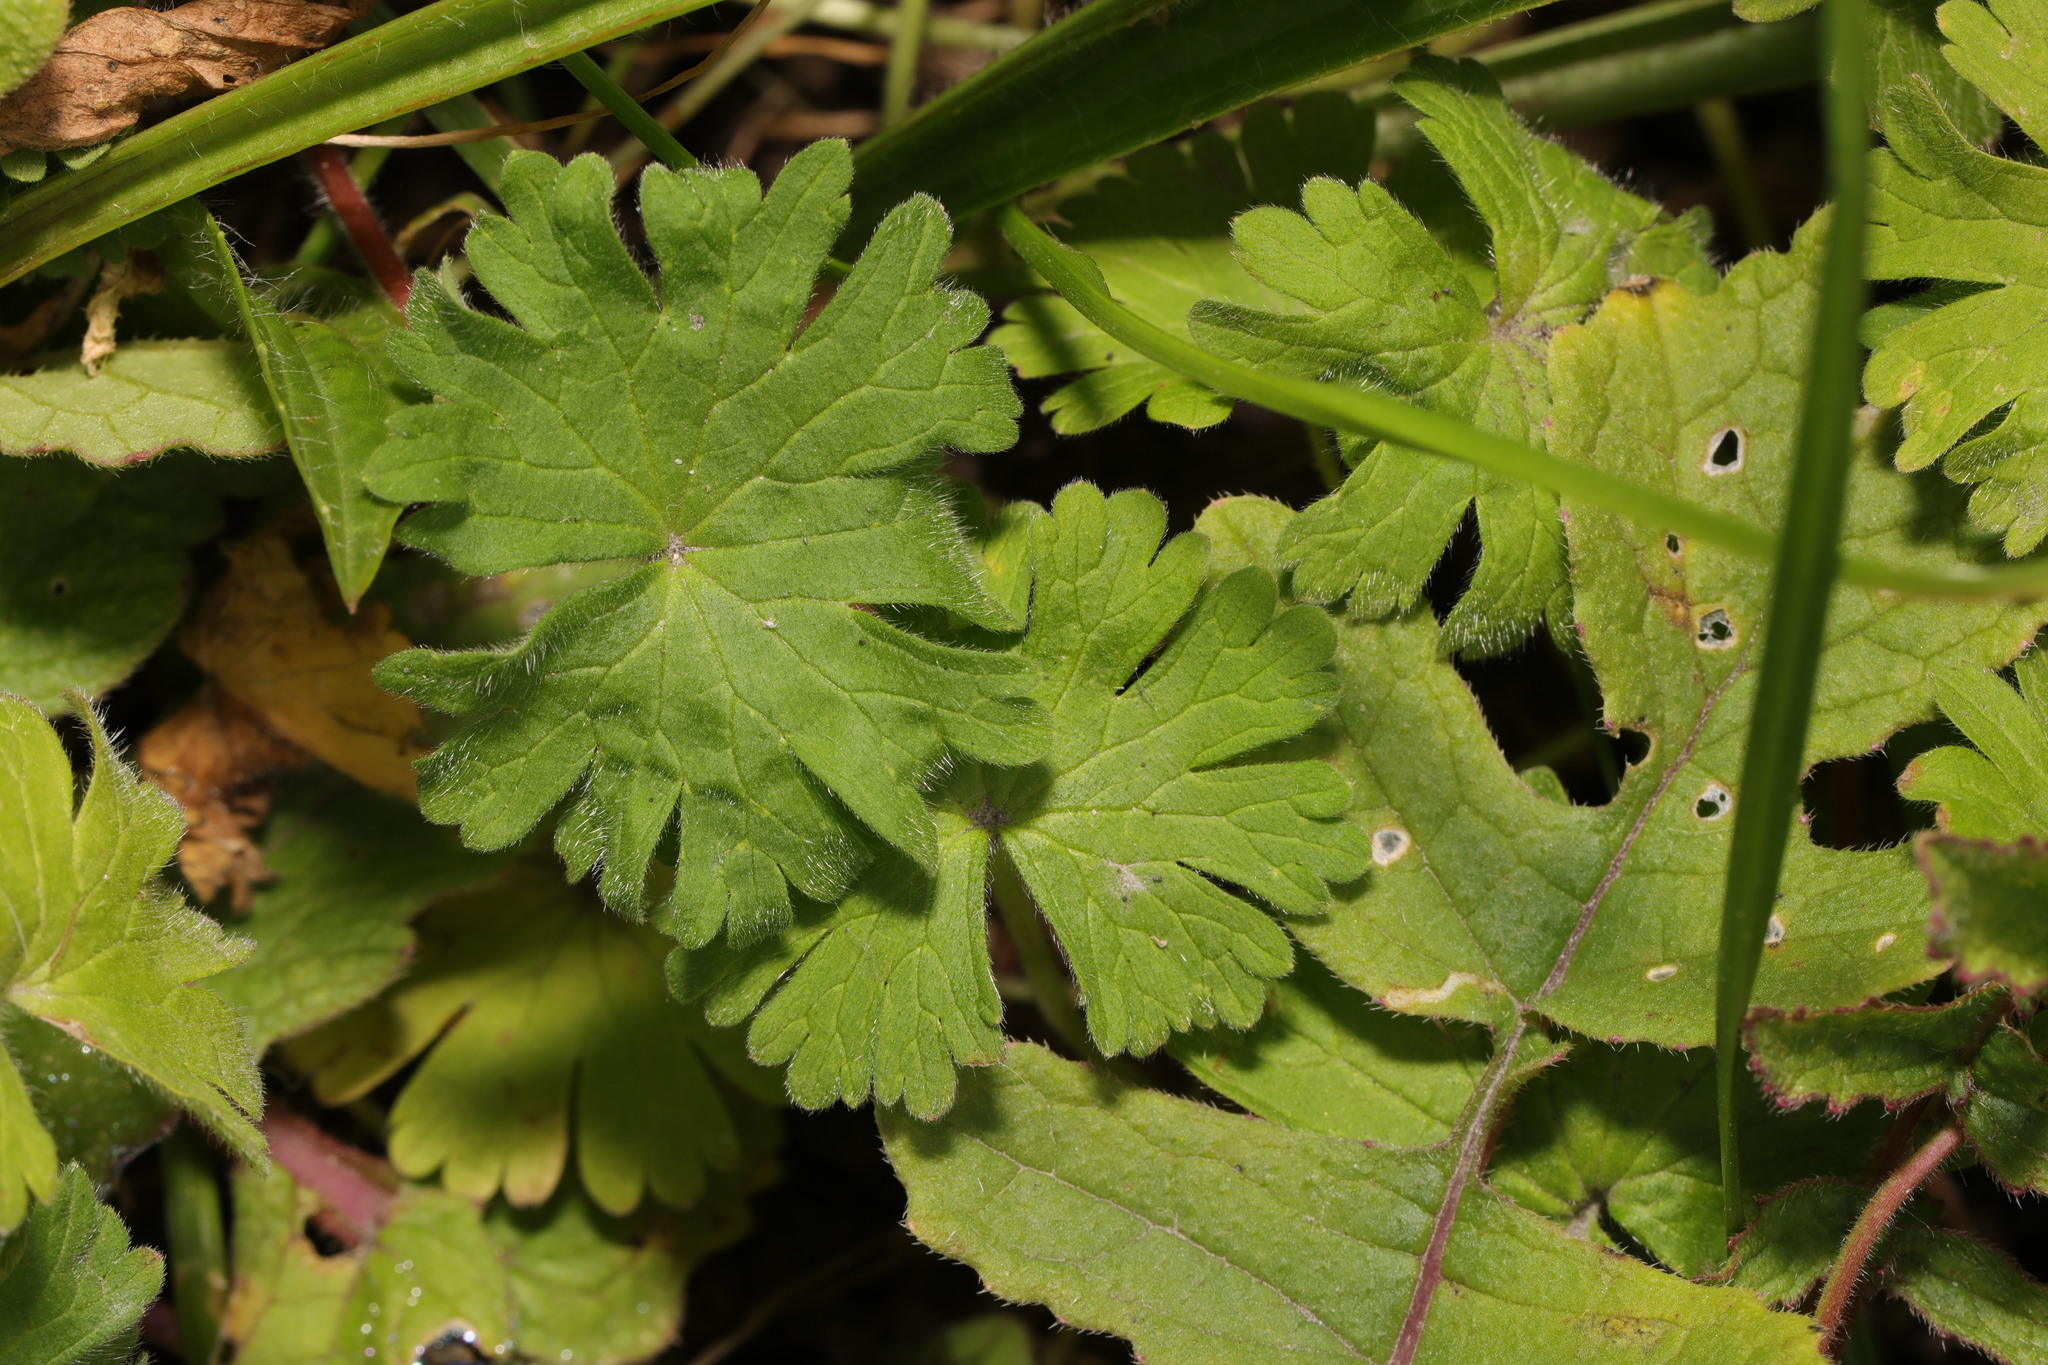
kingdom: Plantae
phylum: Tracheophyta
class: Magnoliopsida
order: Geraniales
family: Geraniaceae
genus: Geranium
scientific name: Geranium molle
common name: Dove's-foot crane's-bill
